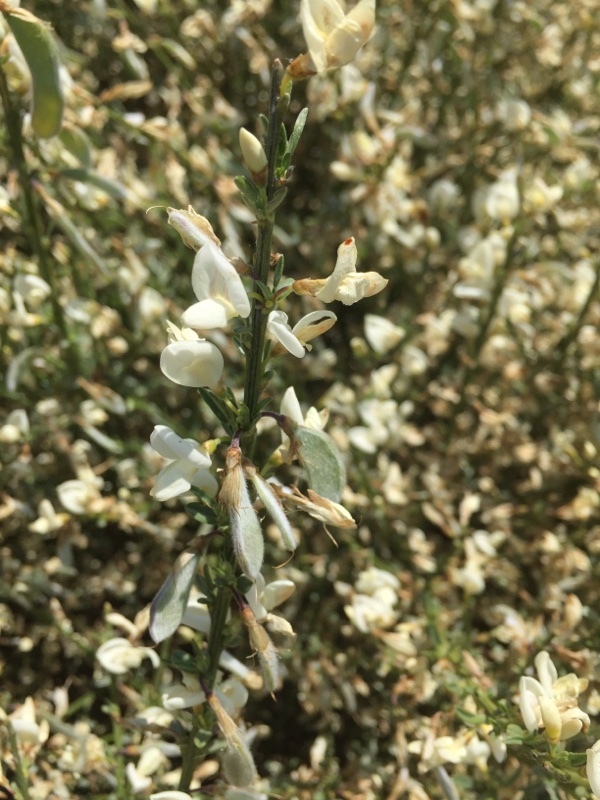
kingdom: Plantae
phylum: Tracheophyta
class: Magnoliopsida
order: Fabales
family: Fabaceae
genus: Cytisus
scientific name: Cytisus multiflorus
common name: White broom
